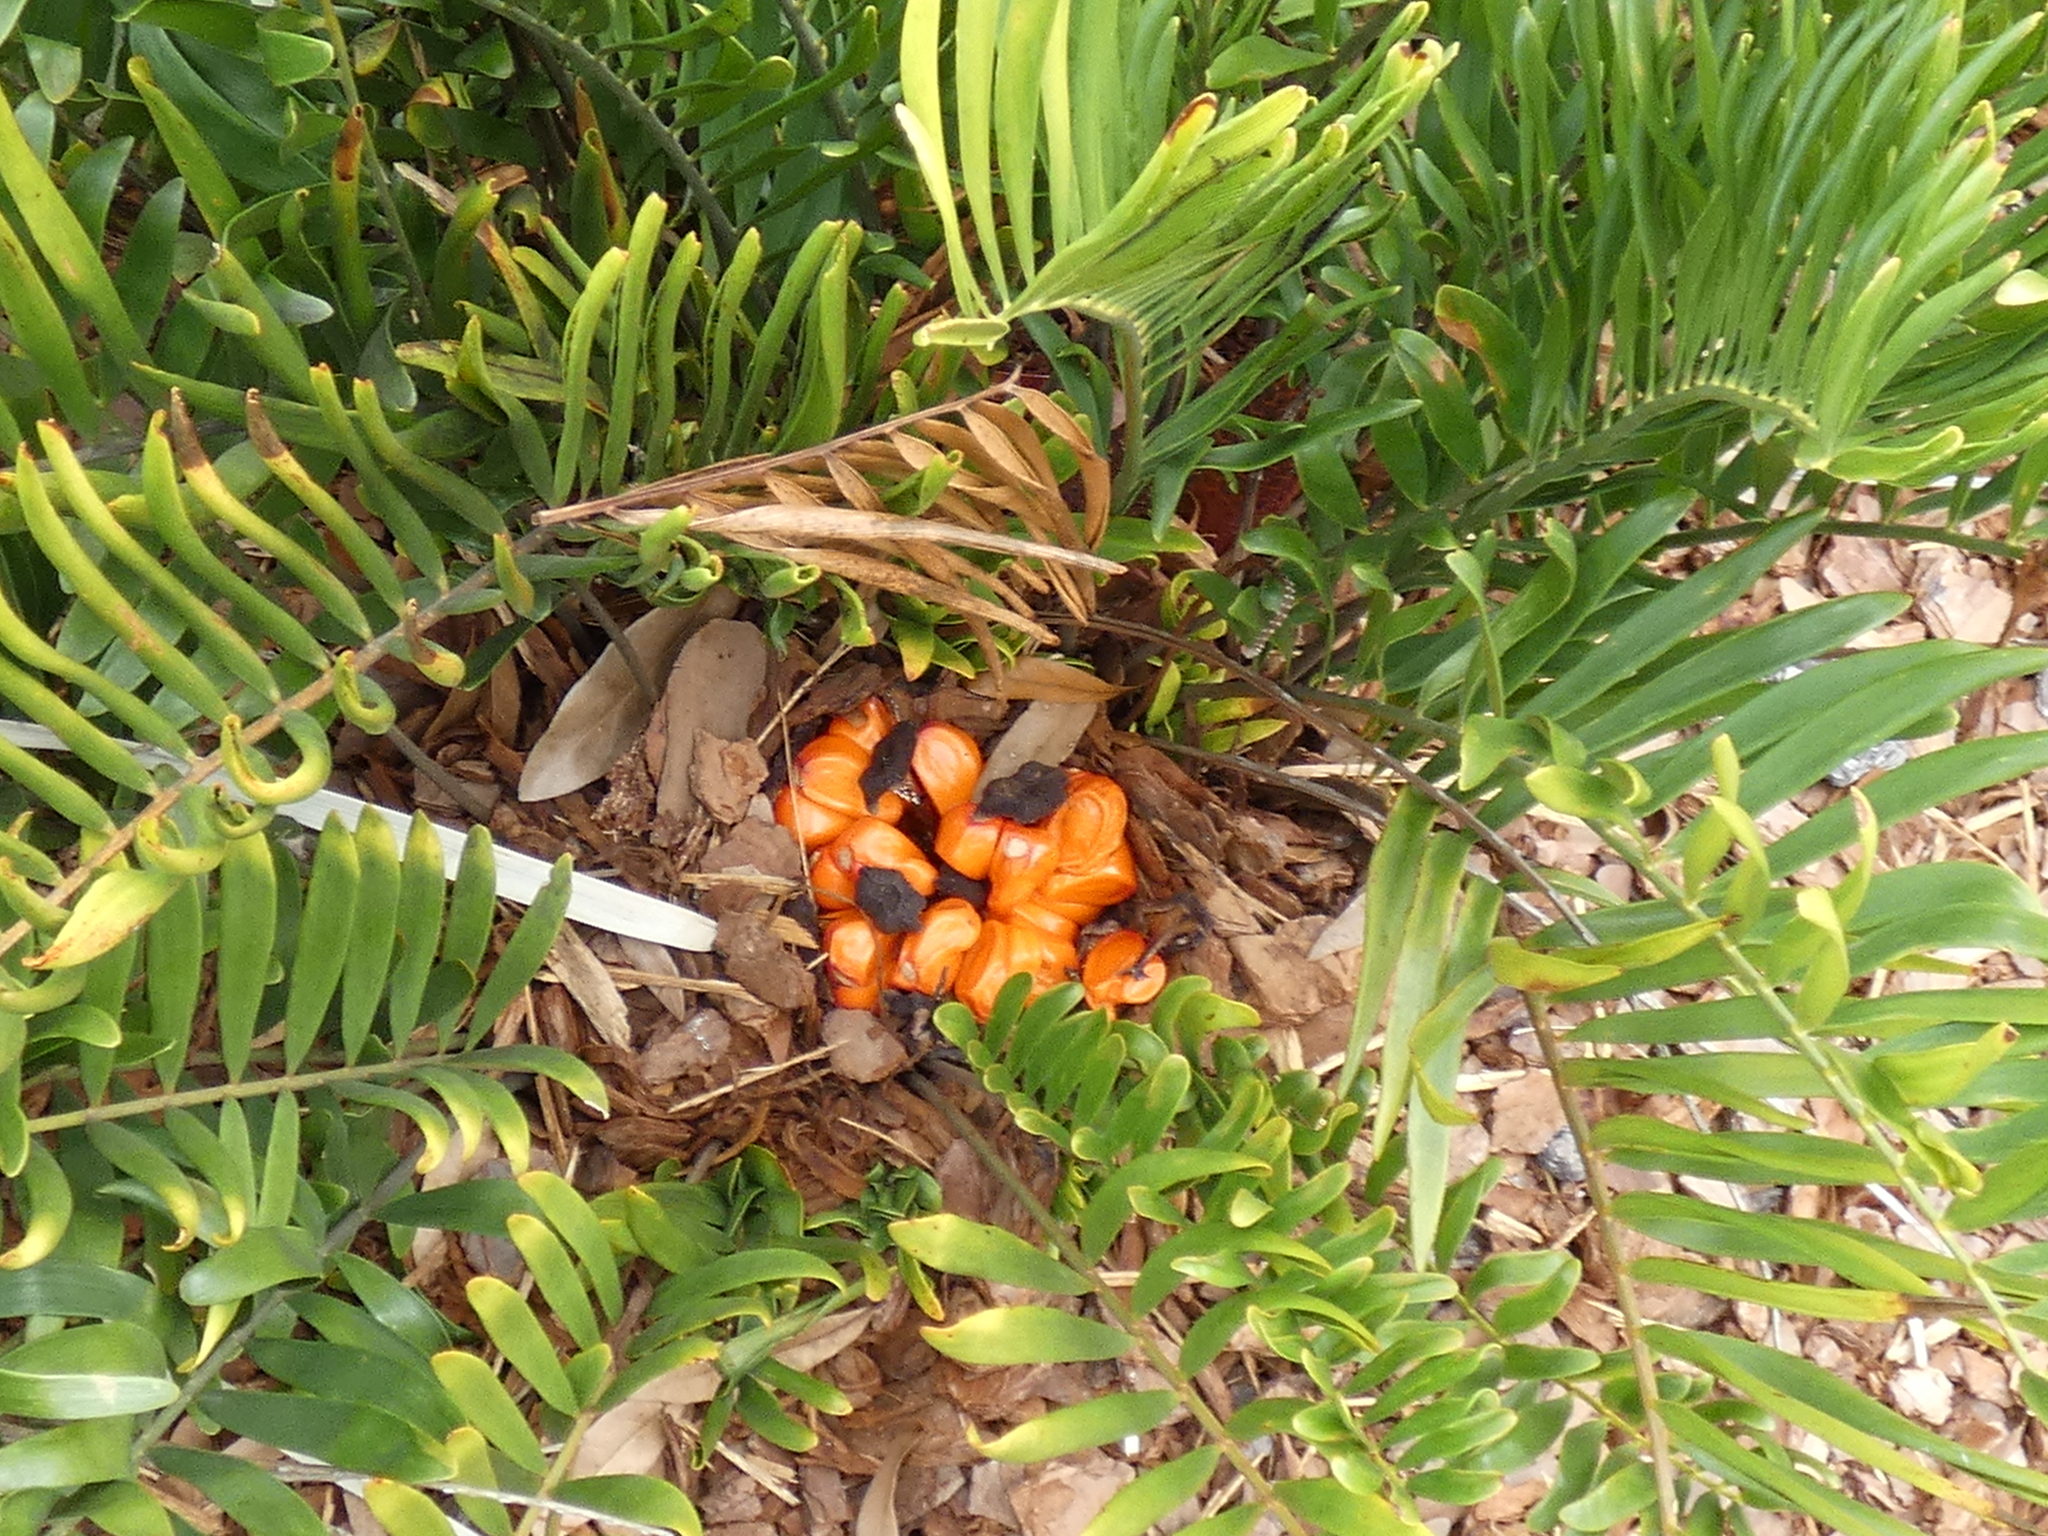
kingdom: Plantae
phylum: Tracheophyta
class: Cycadopsida
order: Cycadales
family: Zamiaceae
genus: Zamia
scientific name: Zamia integrifolia
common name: Florida arrowroot
